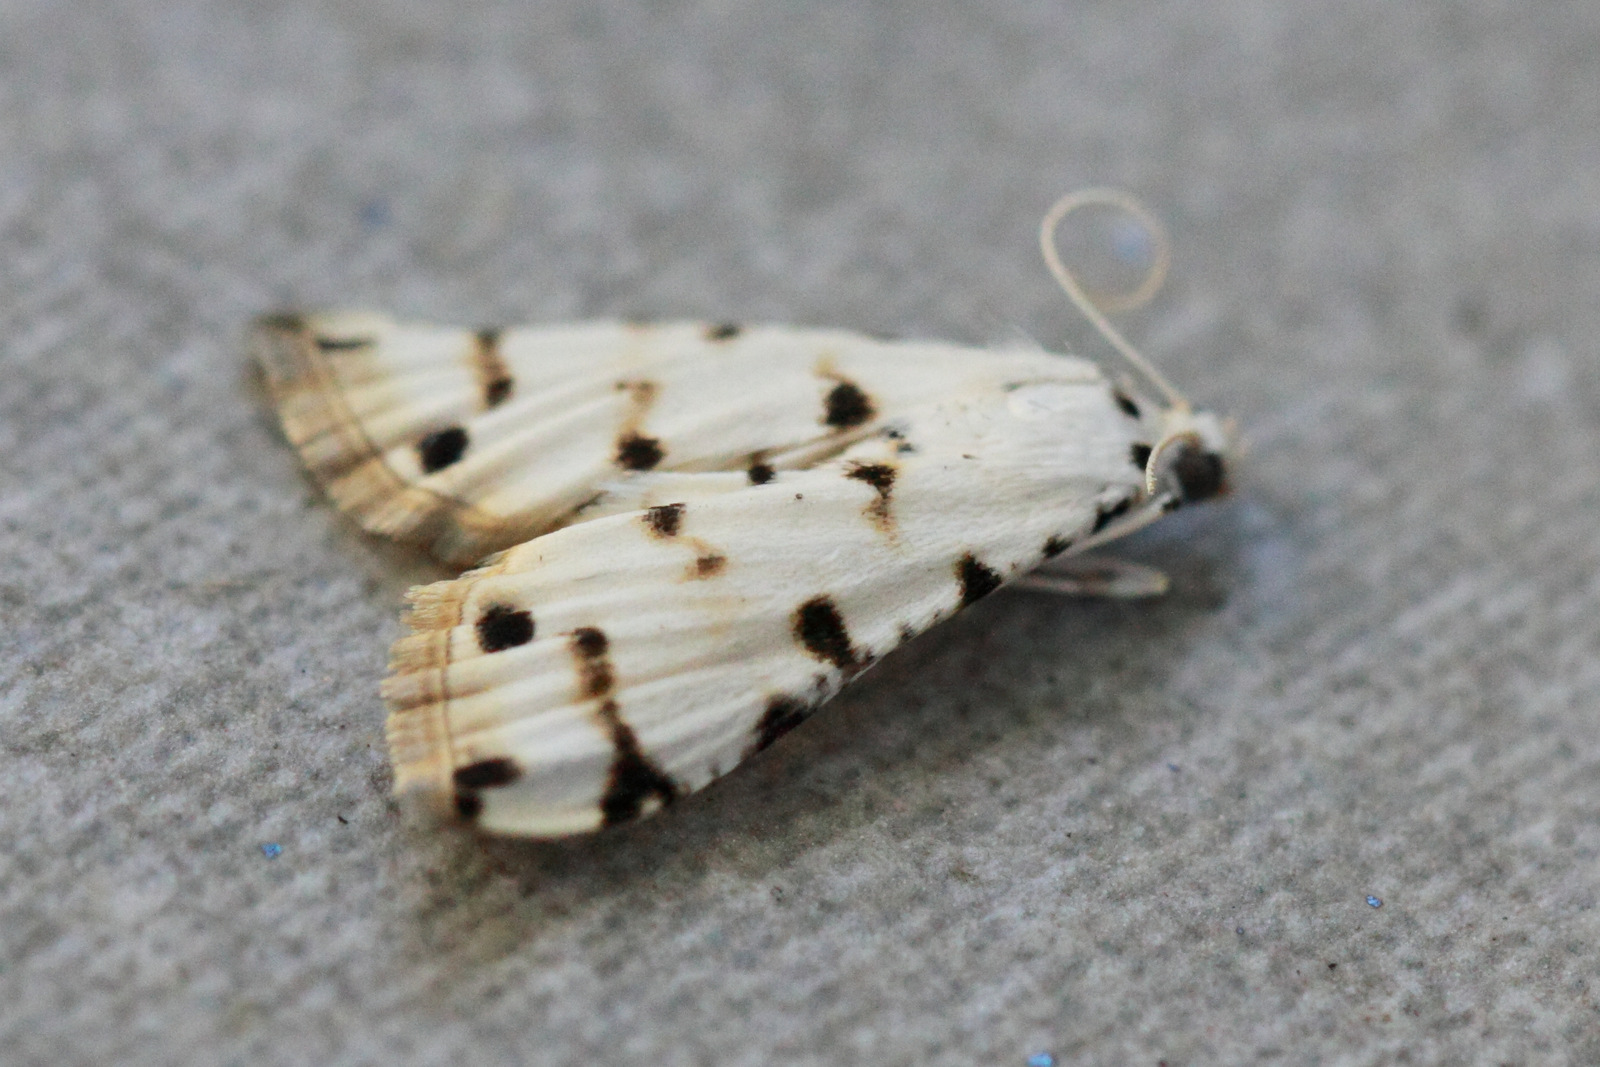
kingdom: Animalia
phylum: Arthropoda
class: Insecta
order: Lepidoptera
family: Crambidae
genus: Pycnarmon
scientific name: Pycnarmon meritalis
